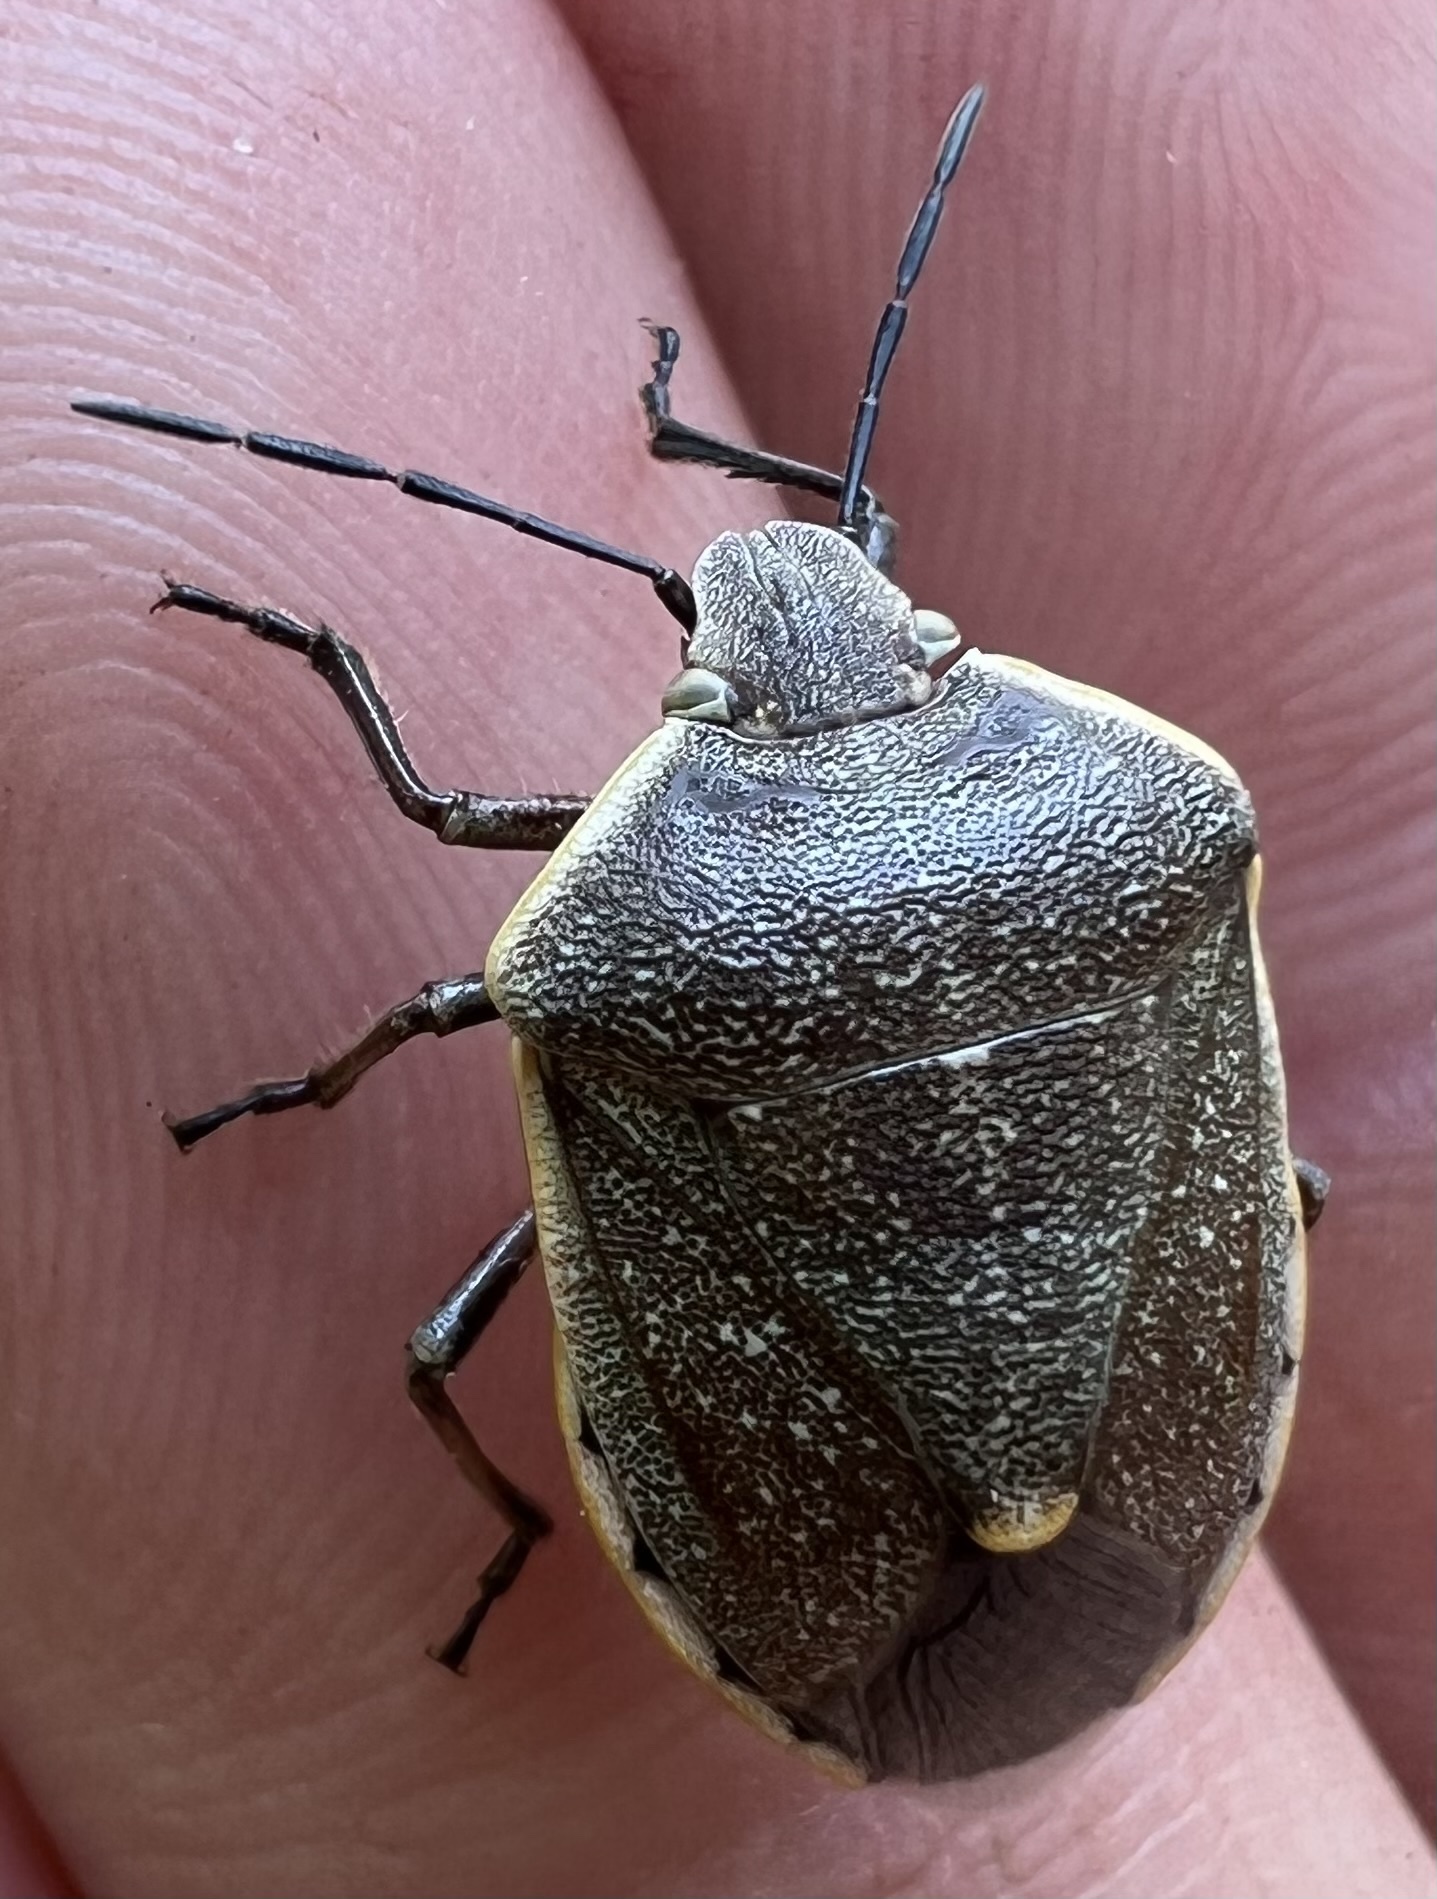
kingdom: Animalia
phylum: Arthropoda
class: Insecta
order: Hemiptera
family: Pentatomidae
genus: Chlorochroa
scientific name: Chlorochroa ligata
